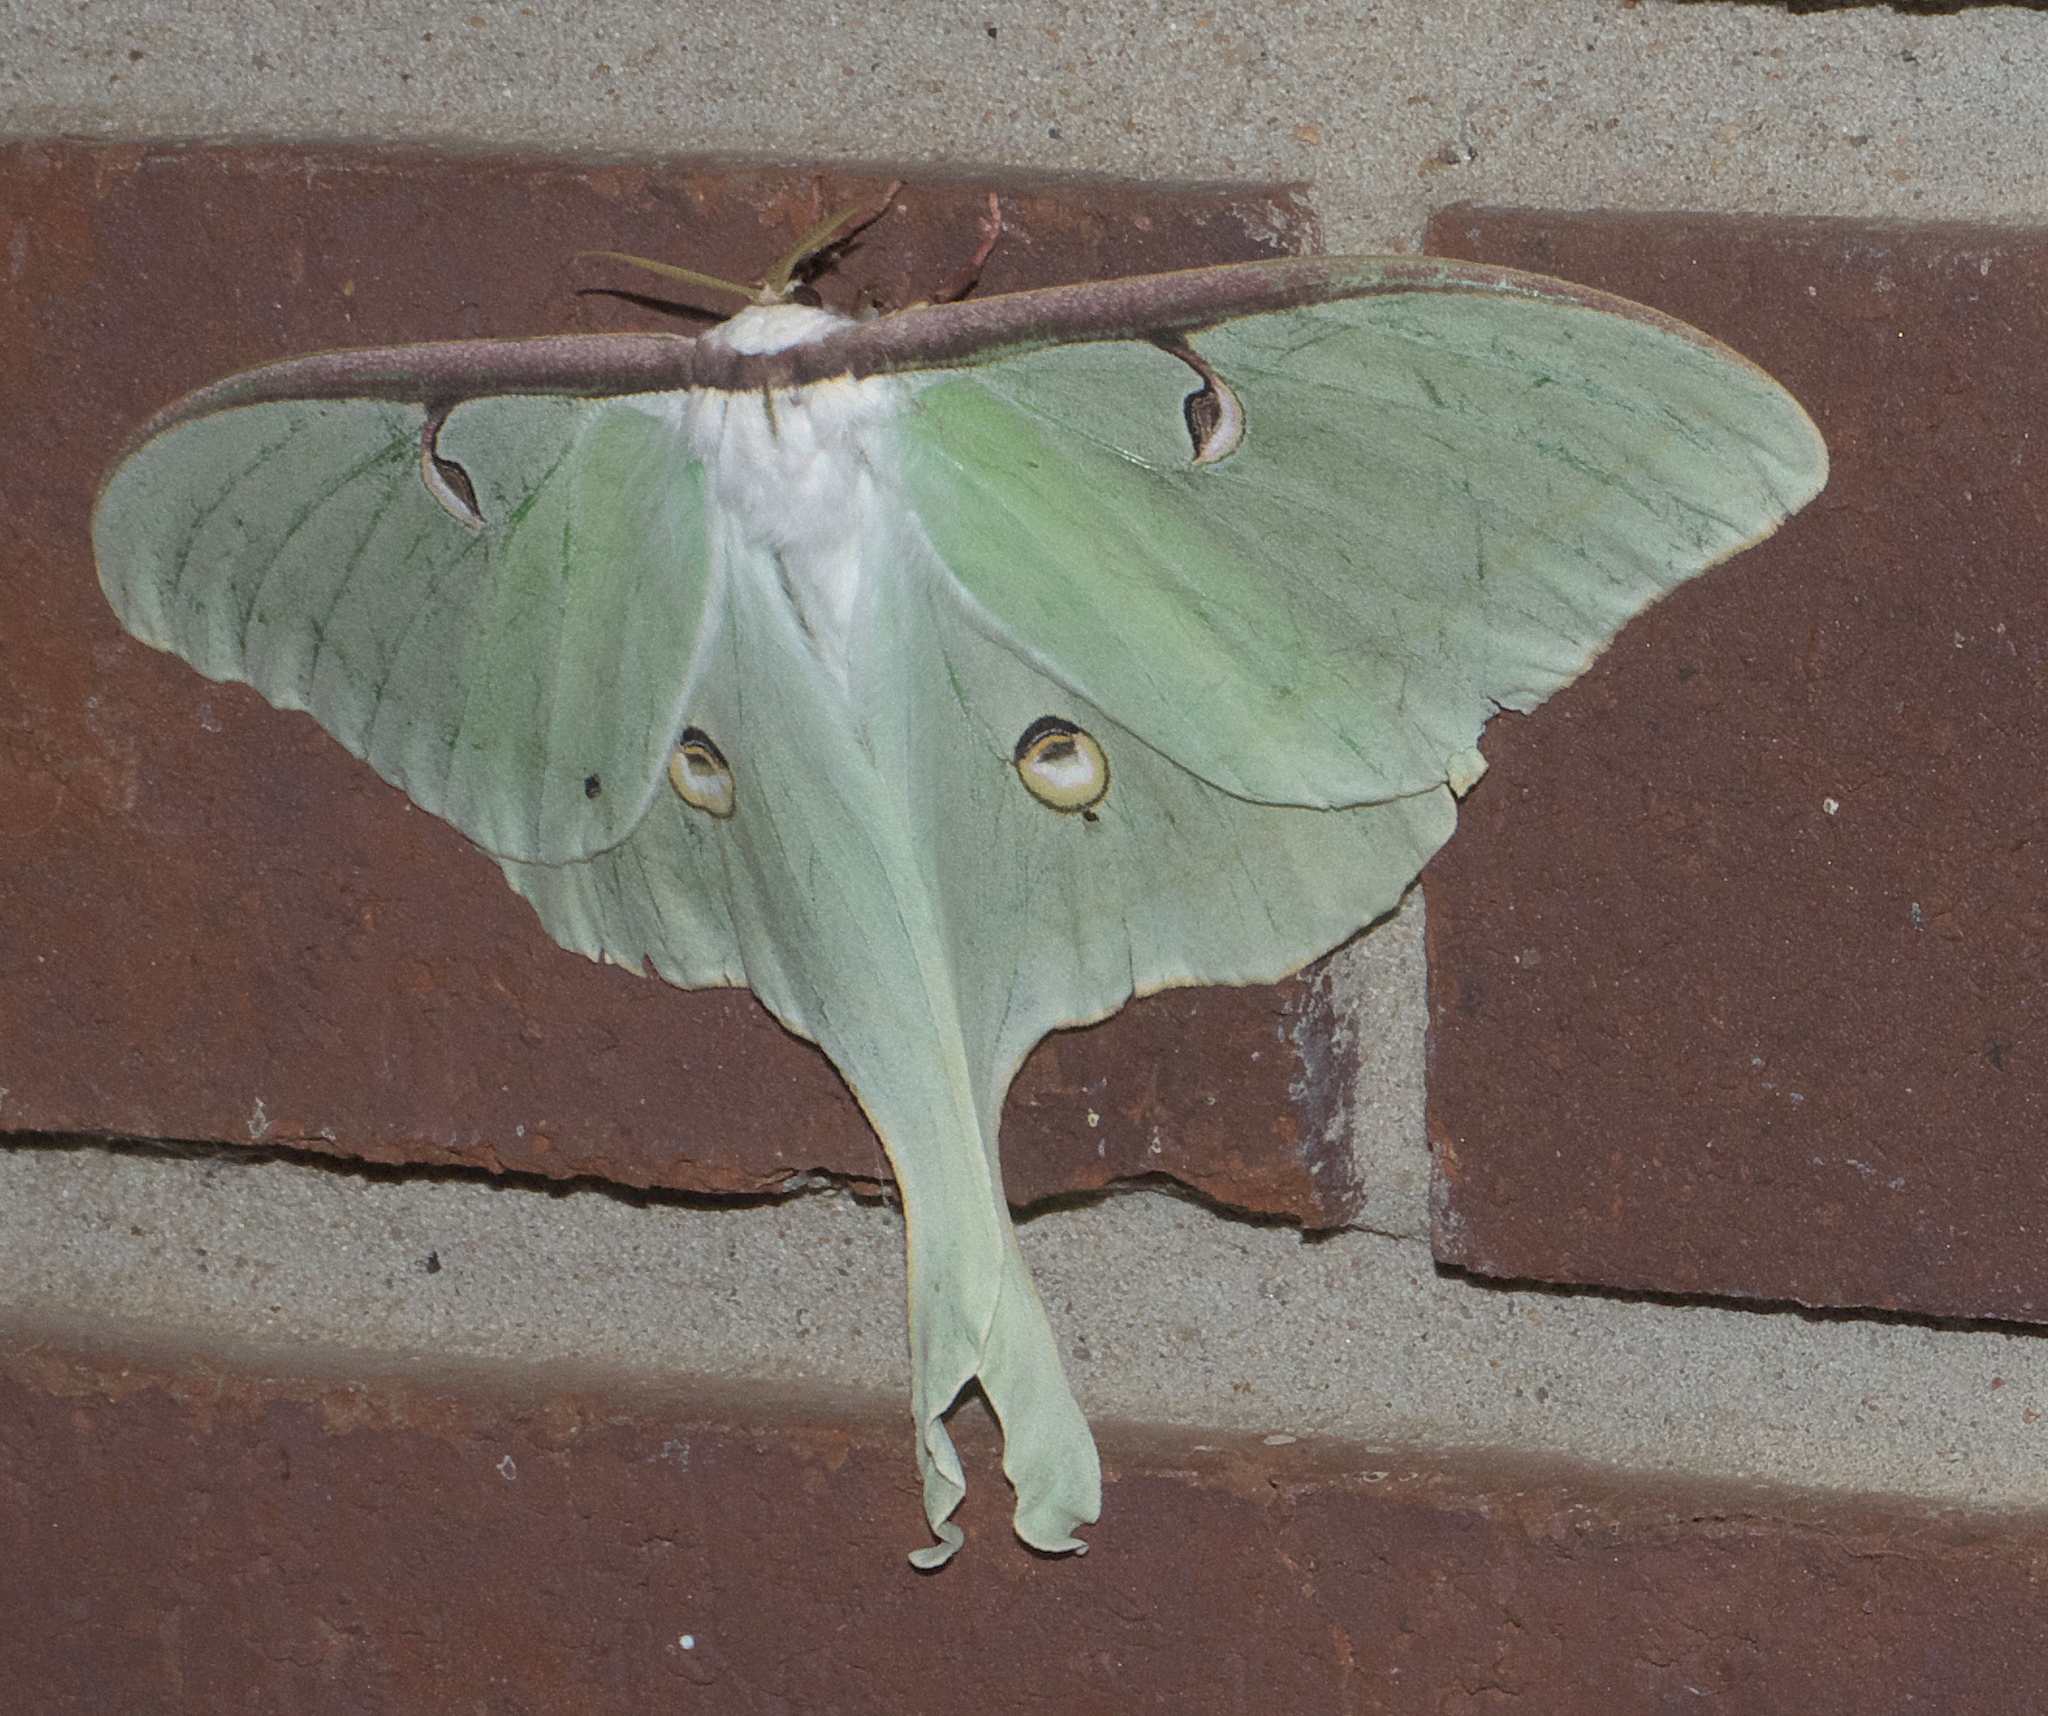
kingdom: Animalia
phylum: Arthropoda
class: Insecta
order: Lepidoptera
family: Saturniidae
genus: Actias
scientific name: Actias luna
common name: Luna moth
